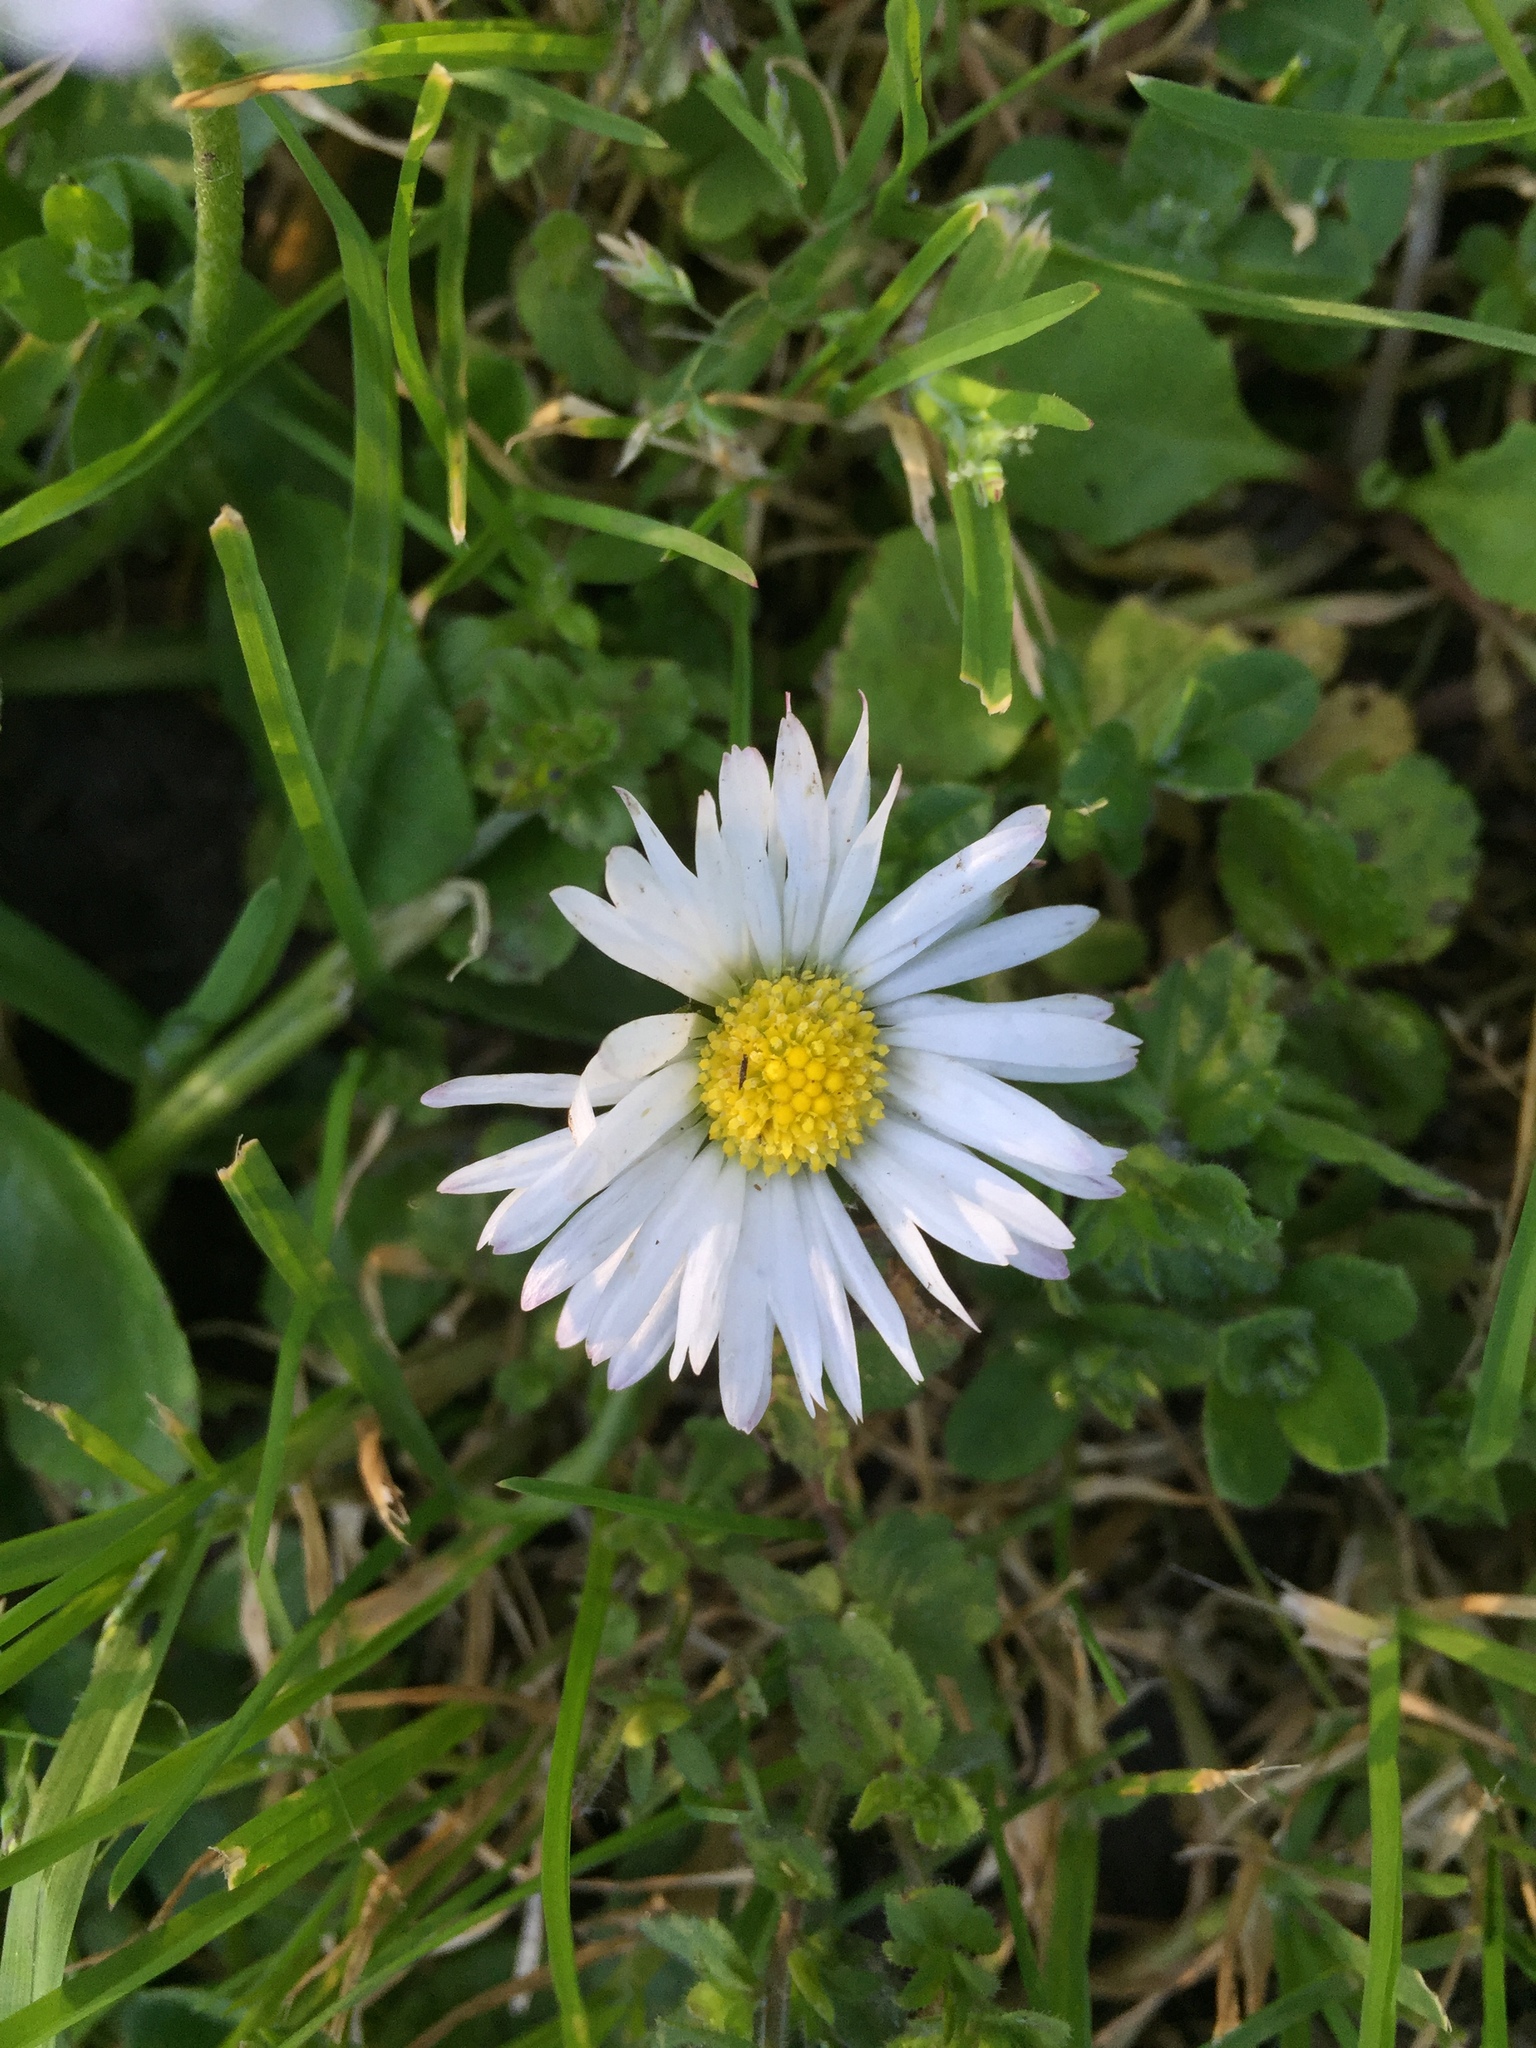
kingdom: Plantae
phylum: Tracheophyta
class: Magnoliopsida
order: Asterales
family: Asteraceae
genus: Bellis
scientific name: Bellis perennis
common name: Lawndaisy
